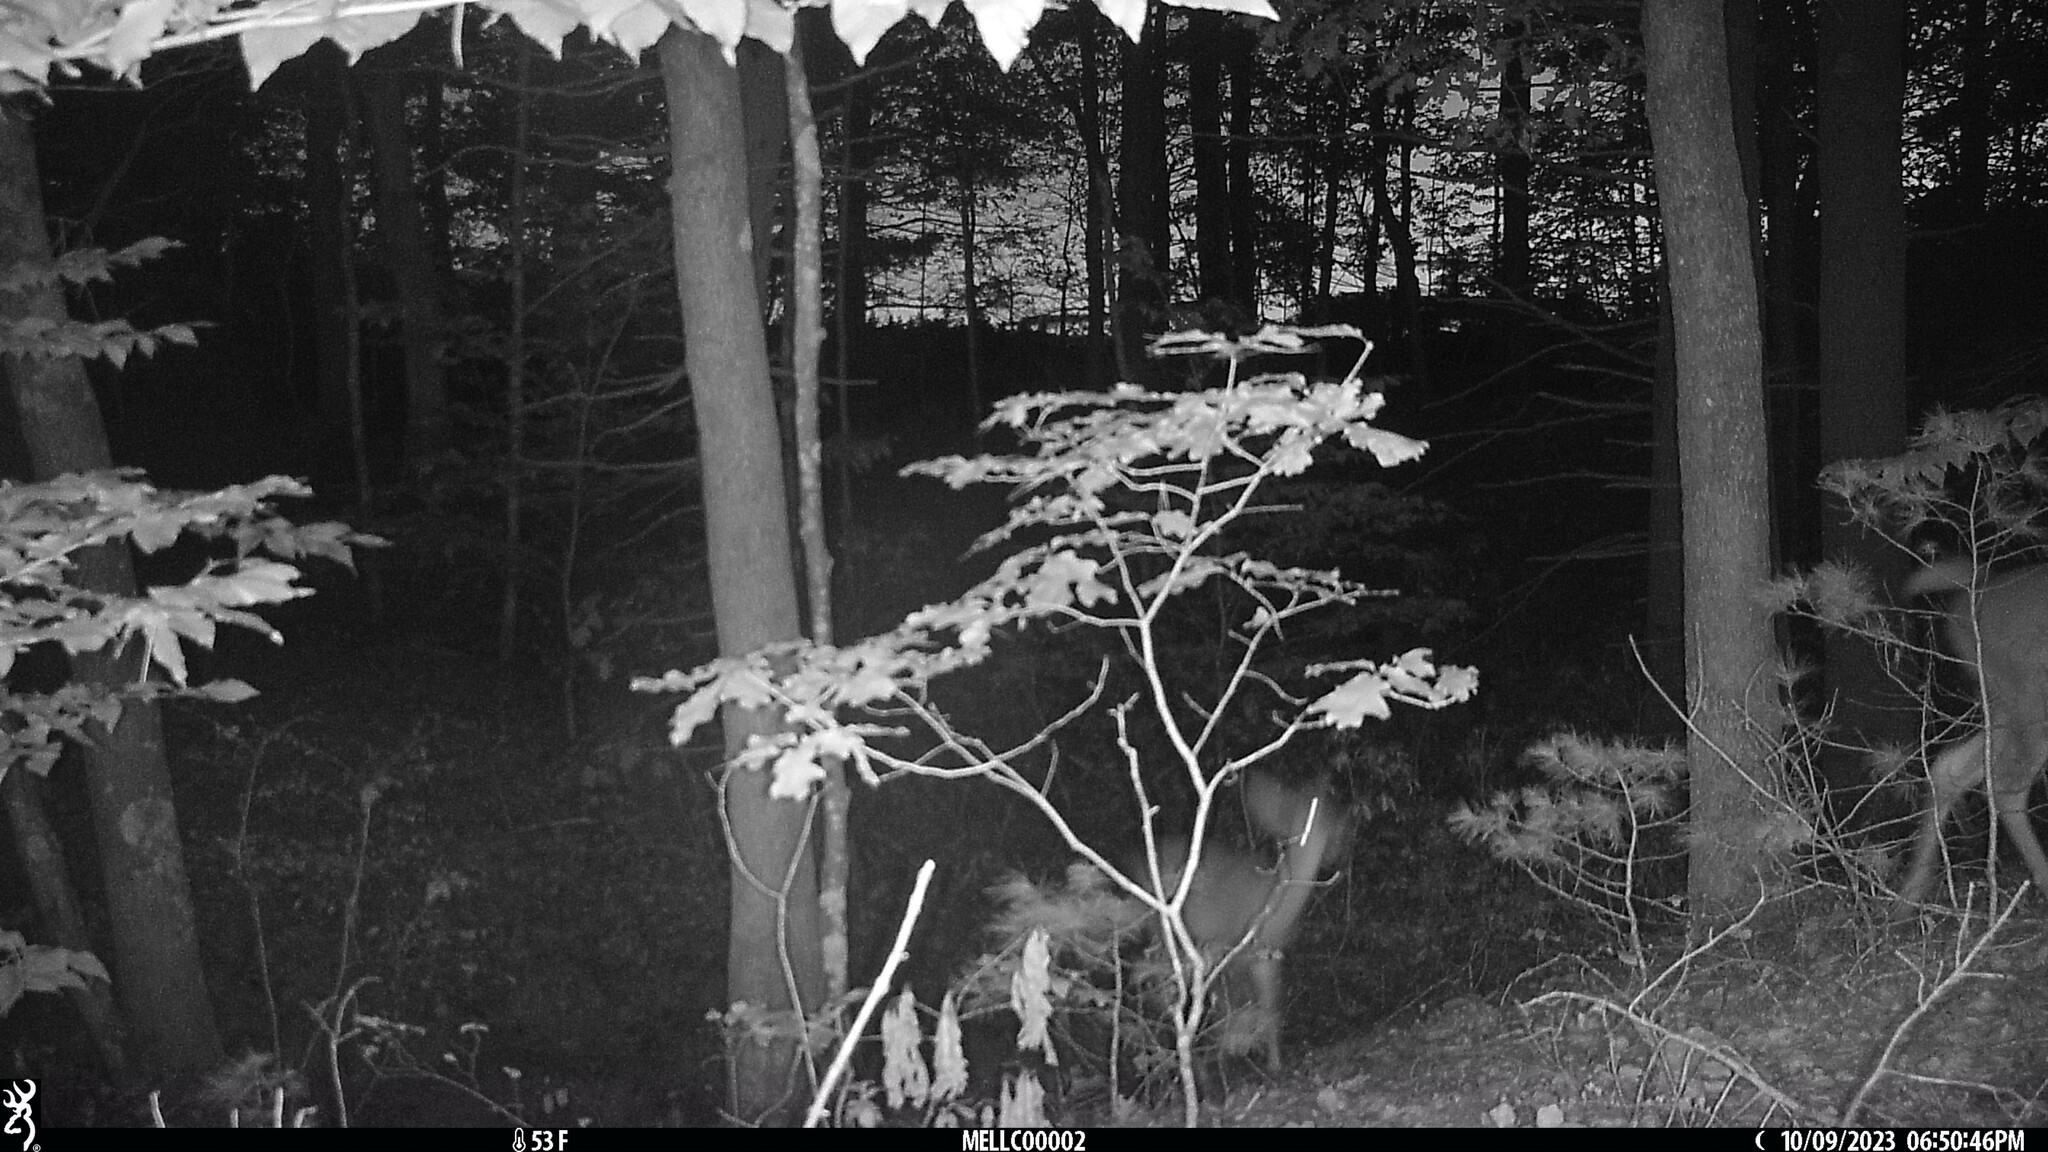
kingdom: Animalia
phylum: Chordata
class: Mammalia
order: Artiodactyla
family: Cervidae
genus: Odocoileus
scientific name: Odocoileus virginianus
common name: White-tailed deer
